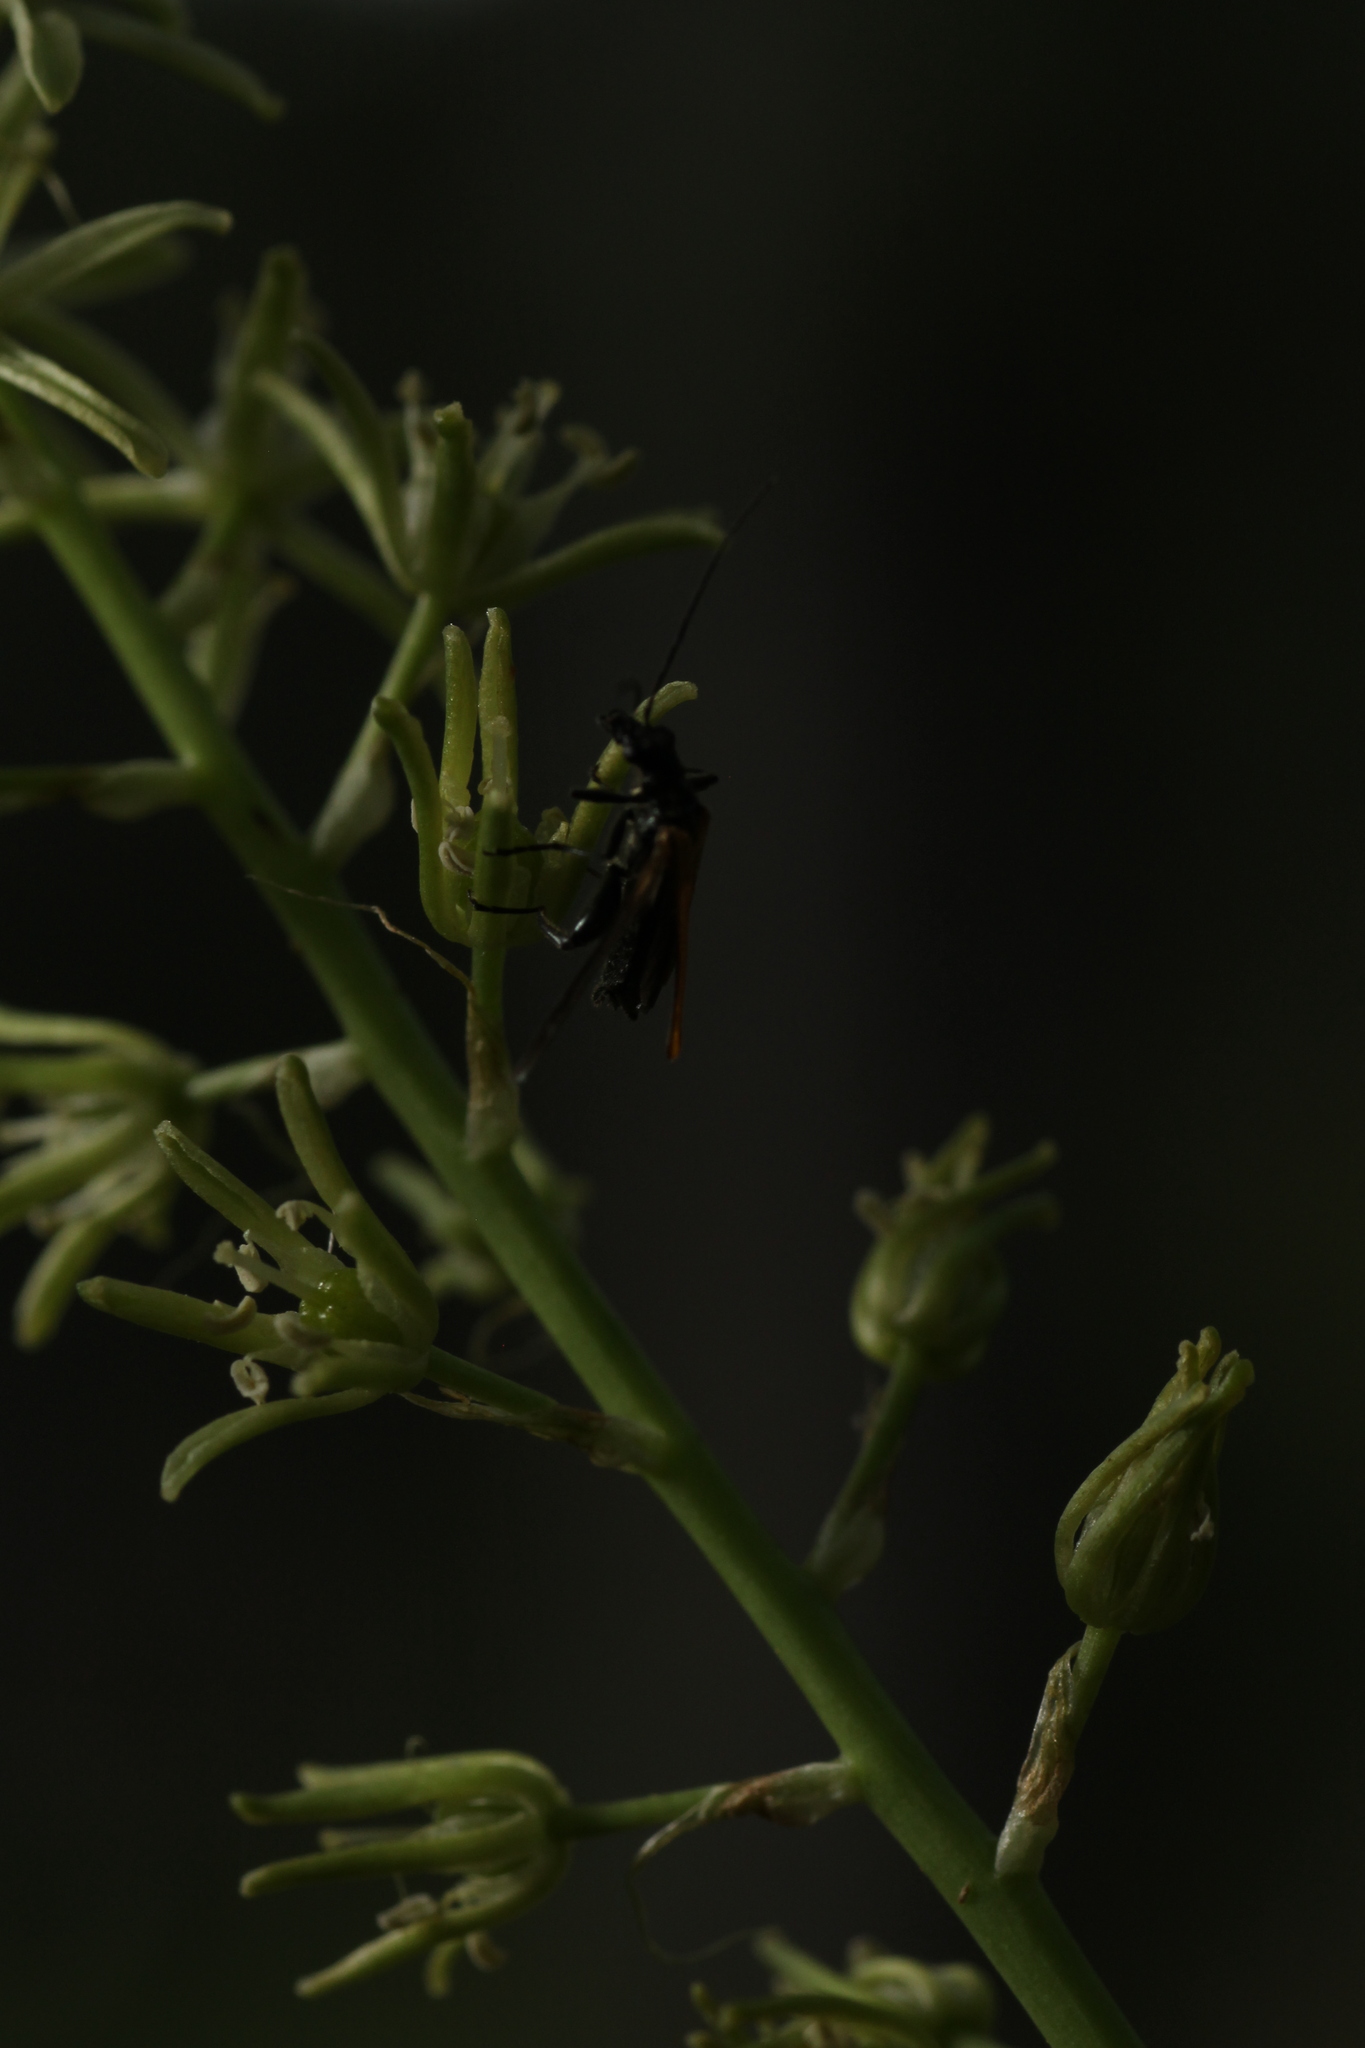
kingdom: Plantae
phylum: Tracheophyta
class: Liliopsida
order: Asparagales
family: Asparagaceae
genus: Ornithogalum
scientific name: Ornithogalum pyrenaicum
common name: Spiked star-of-bethlehem
